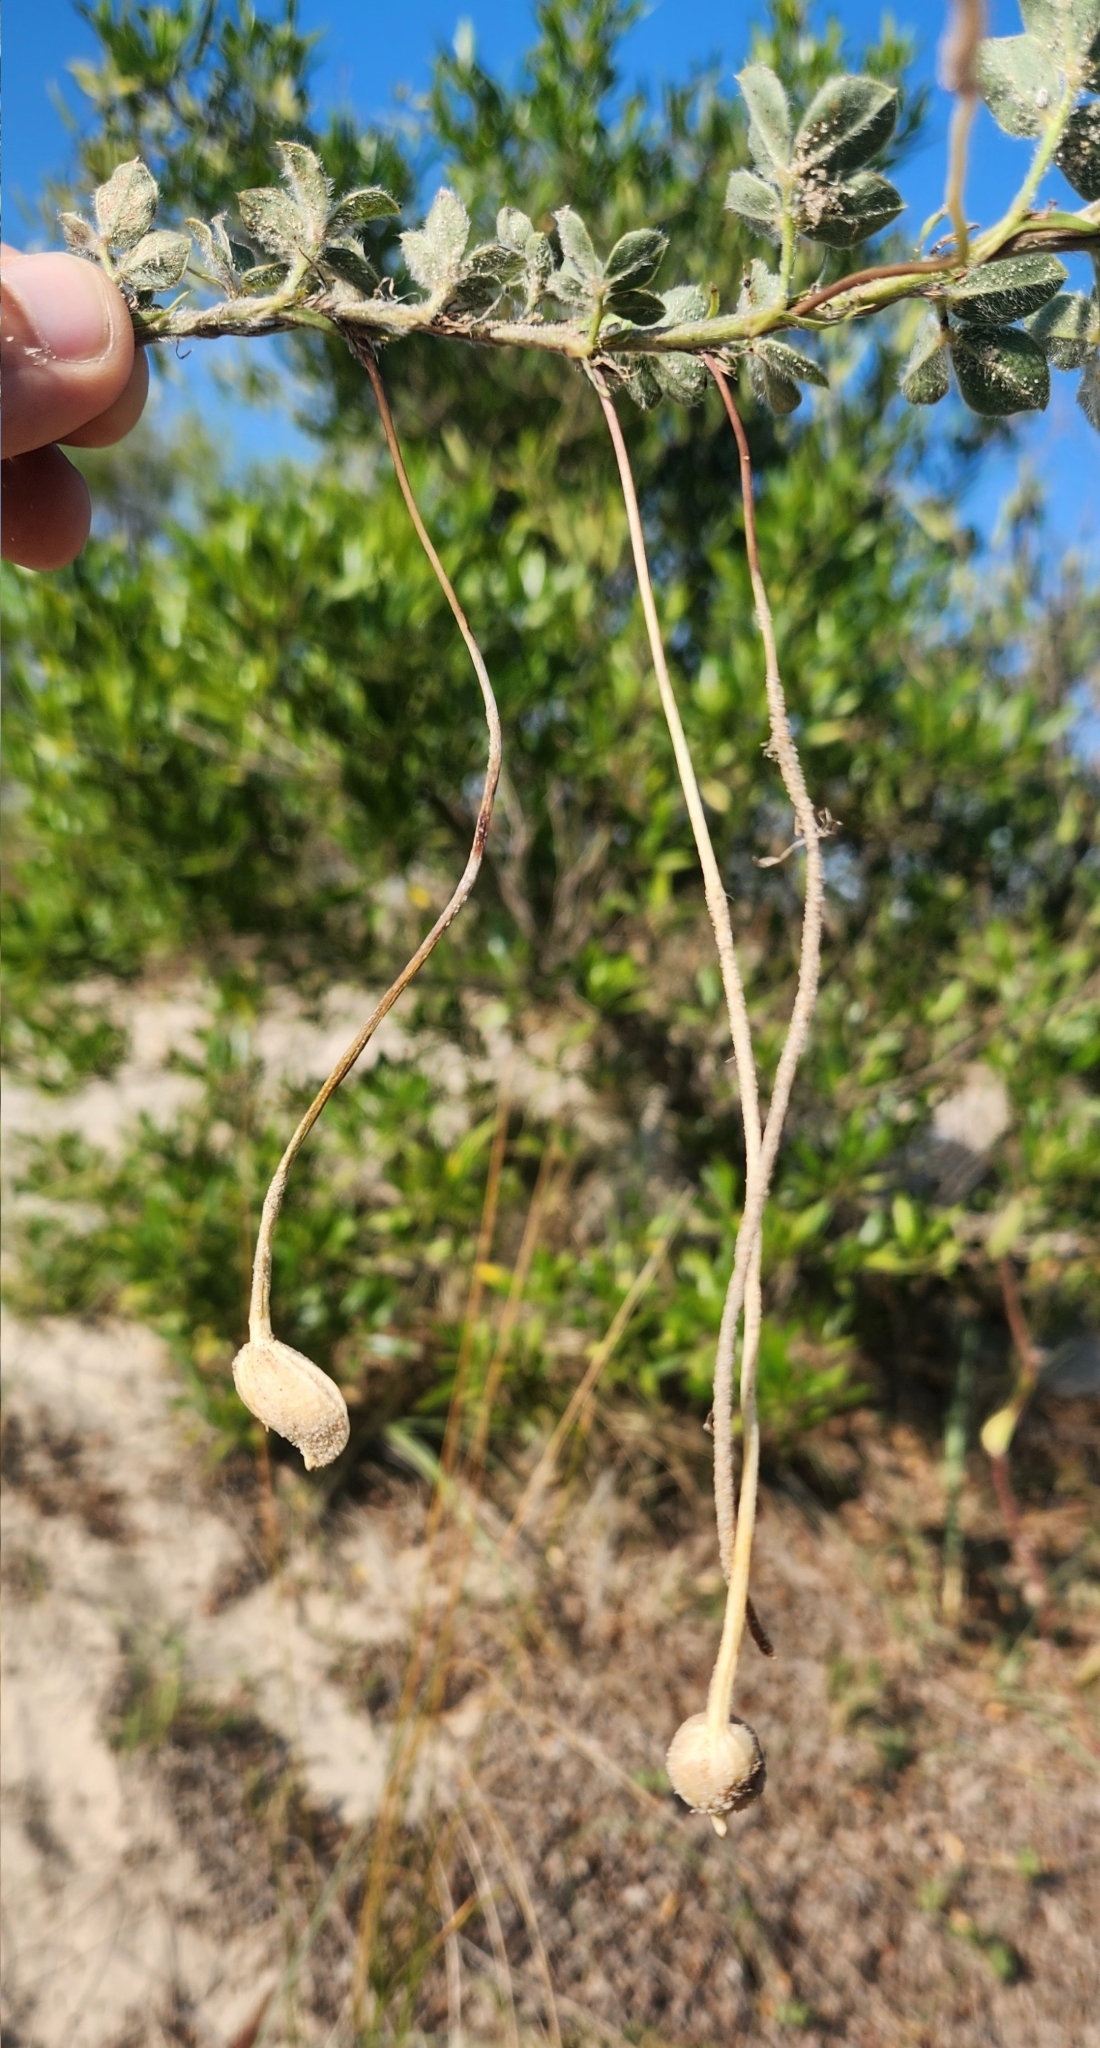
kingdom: Plantae
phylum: Tracheophyta
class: Magnoliopsida
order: Fabales
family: Fabaceae
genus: Arachis
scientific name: Arachis villosa
